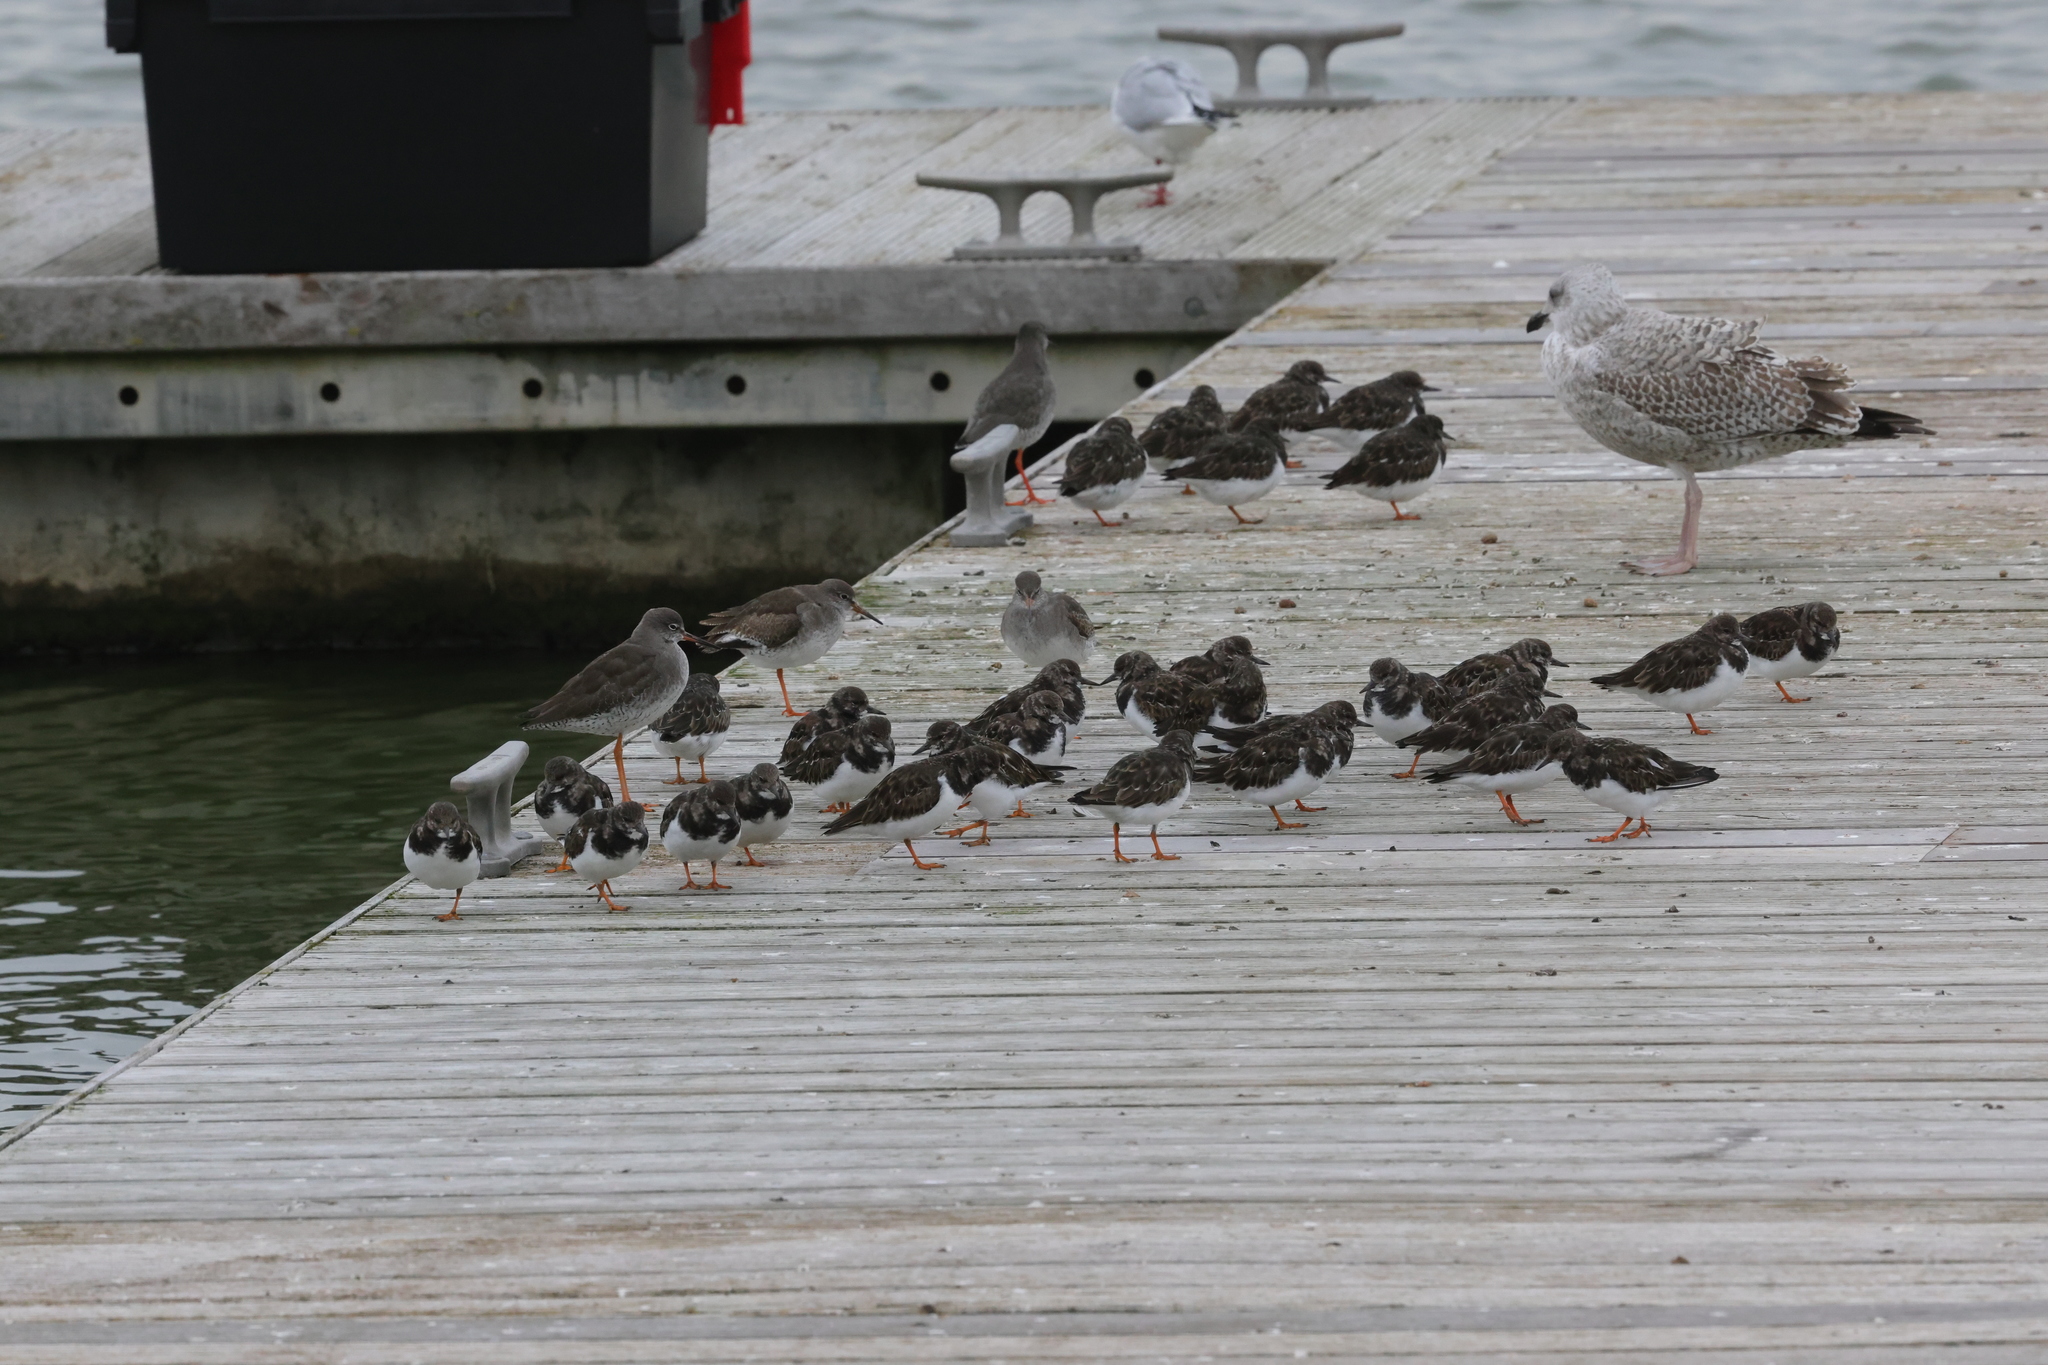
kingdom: Animalia
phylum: Chordata
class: Aves
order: Charadriiformes
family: Scolopacidae
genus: Arenaria
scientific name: Arenaria interpres
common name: Ruddy turnstone
